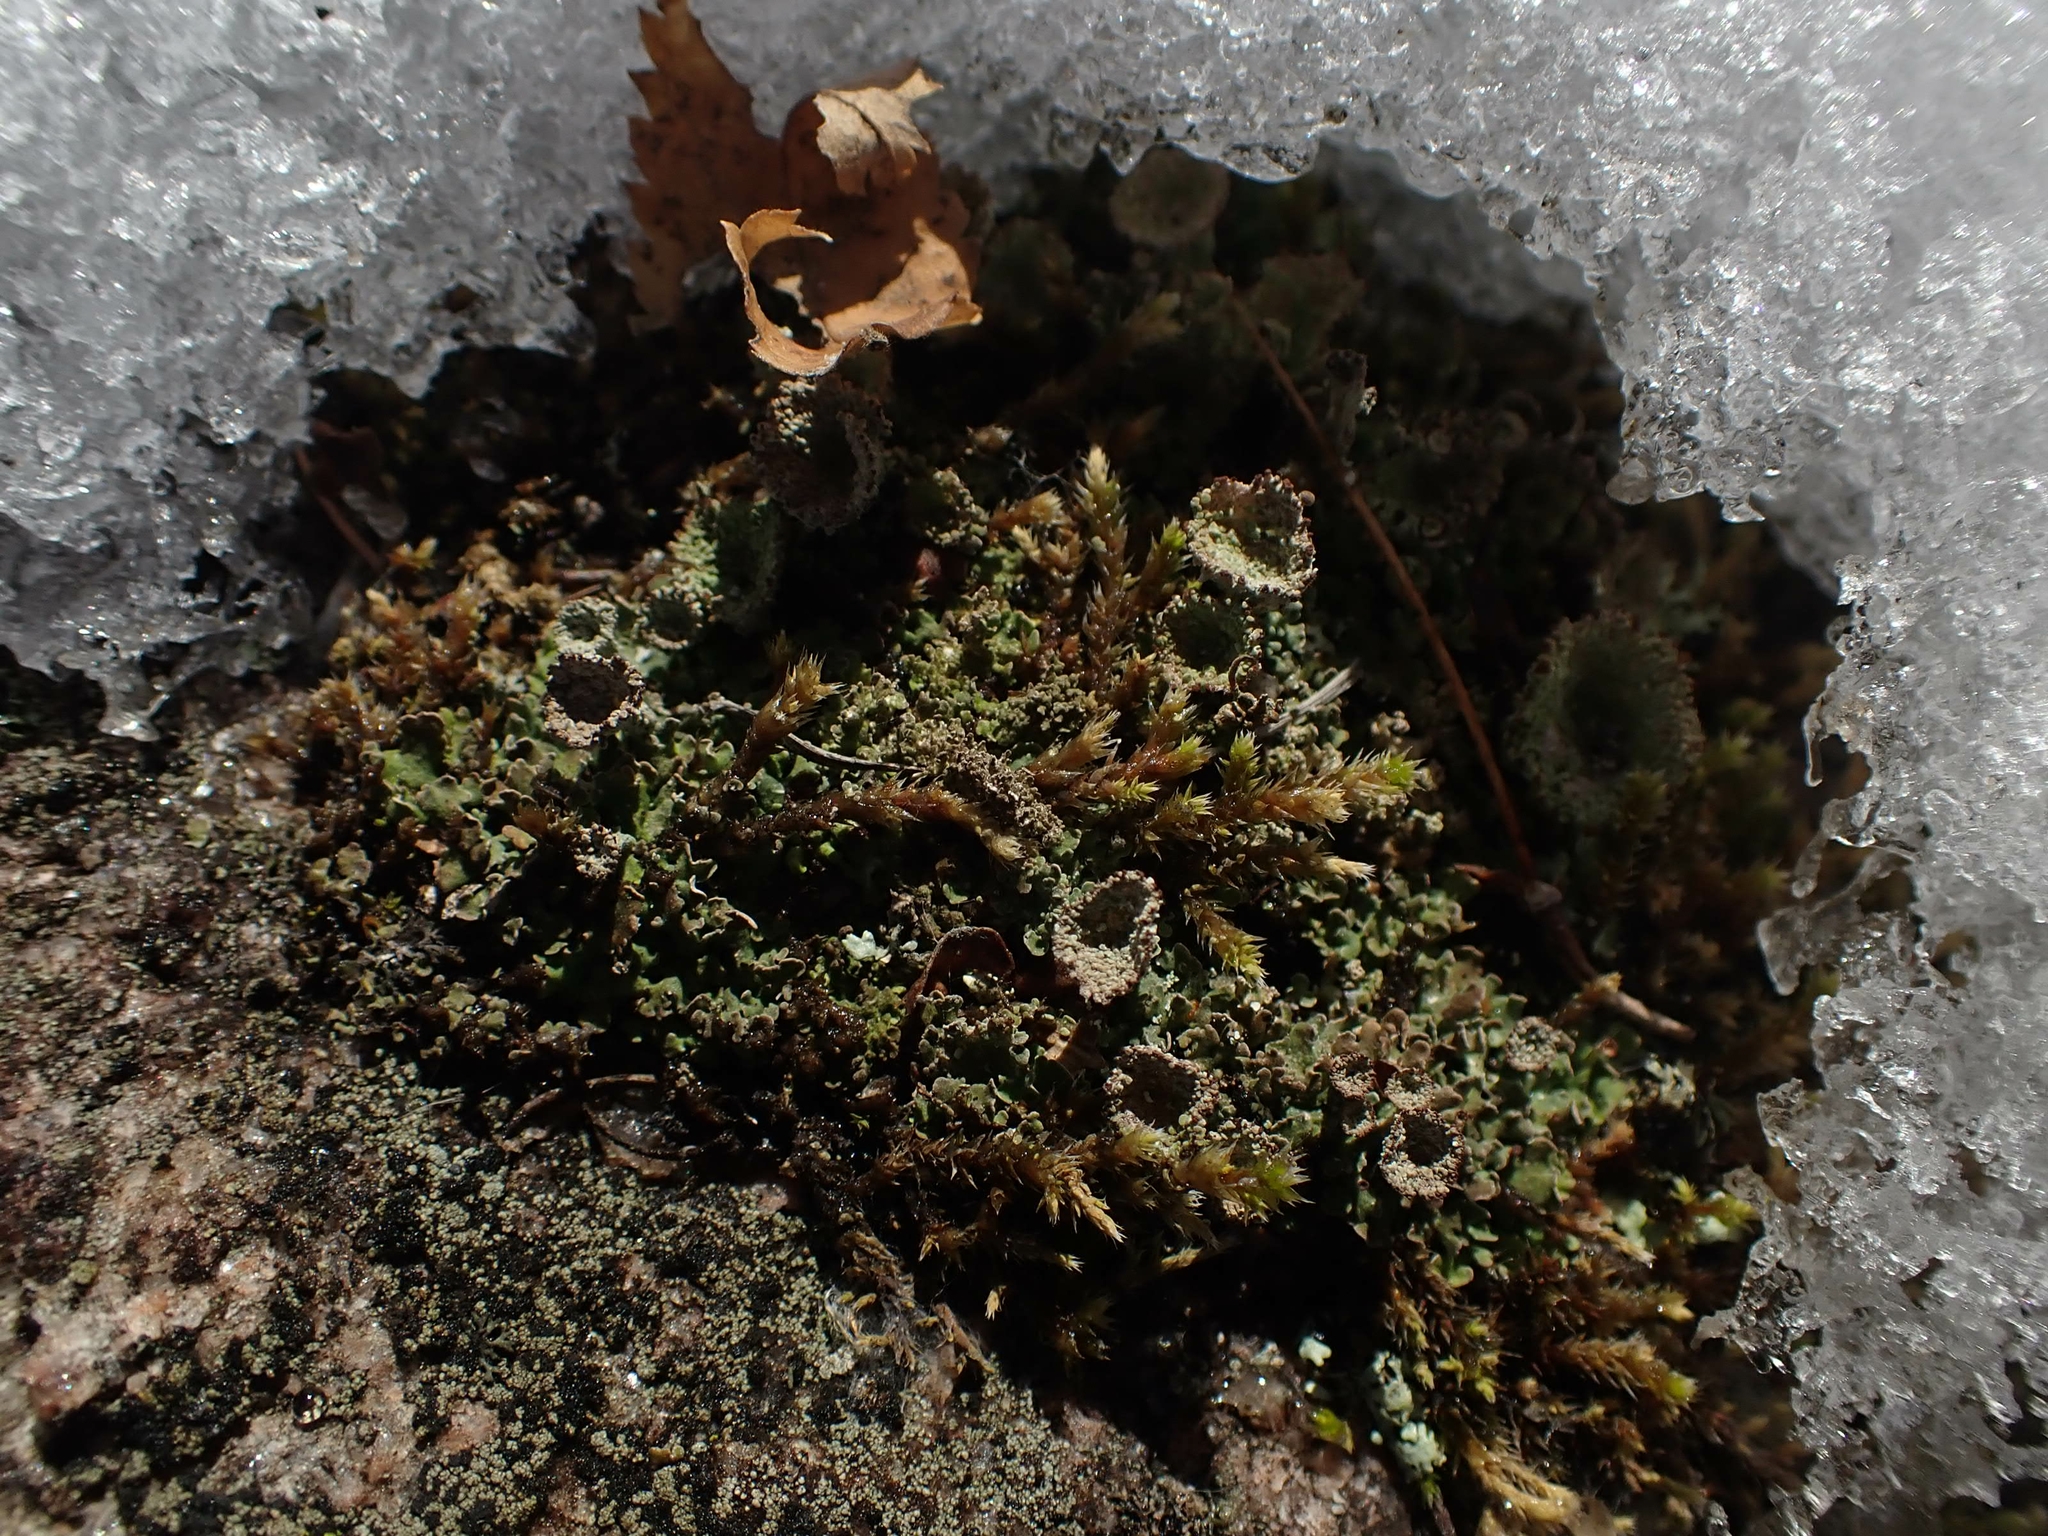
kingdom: Fungi
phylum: Ascomycota
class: Lecanoromycetes
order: Lecanorales
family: Cladoniaceae
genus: Cladonia
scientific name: Cladonia pyxidata
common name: Pebbled pixie cup
